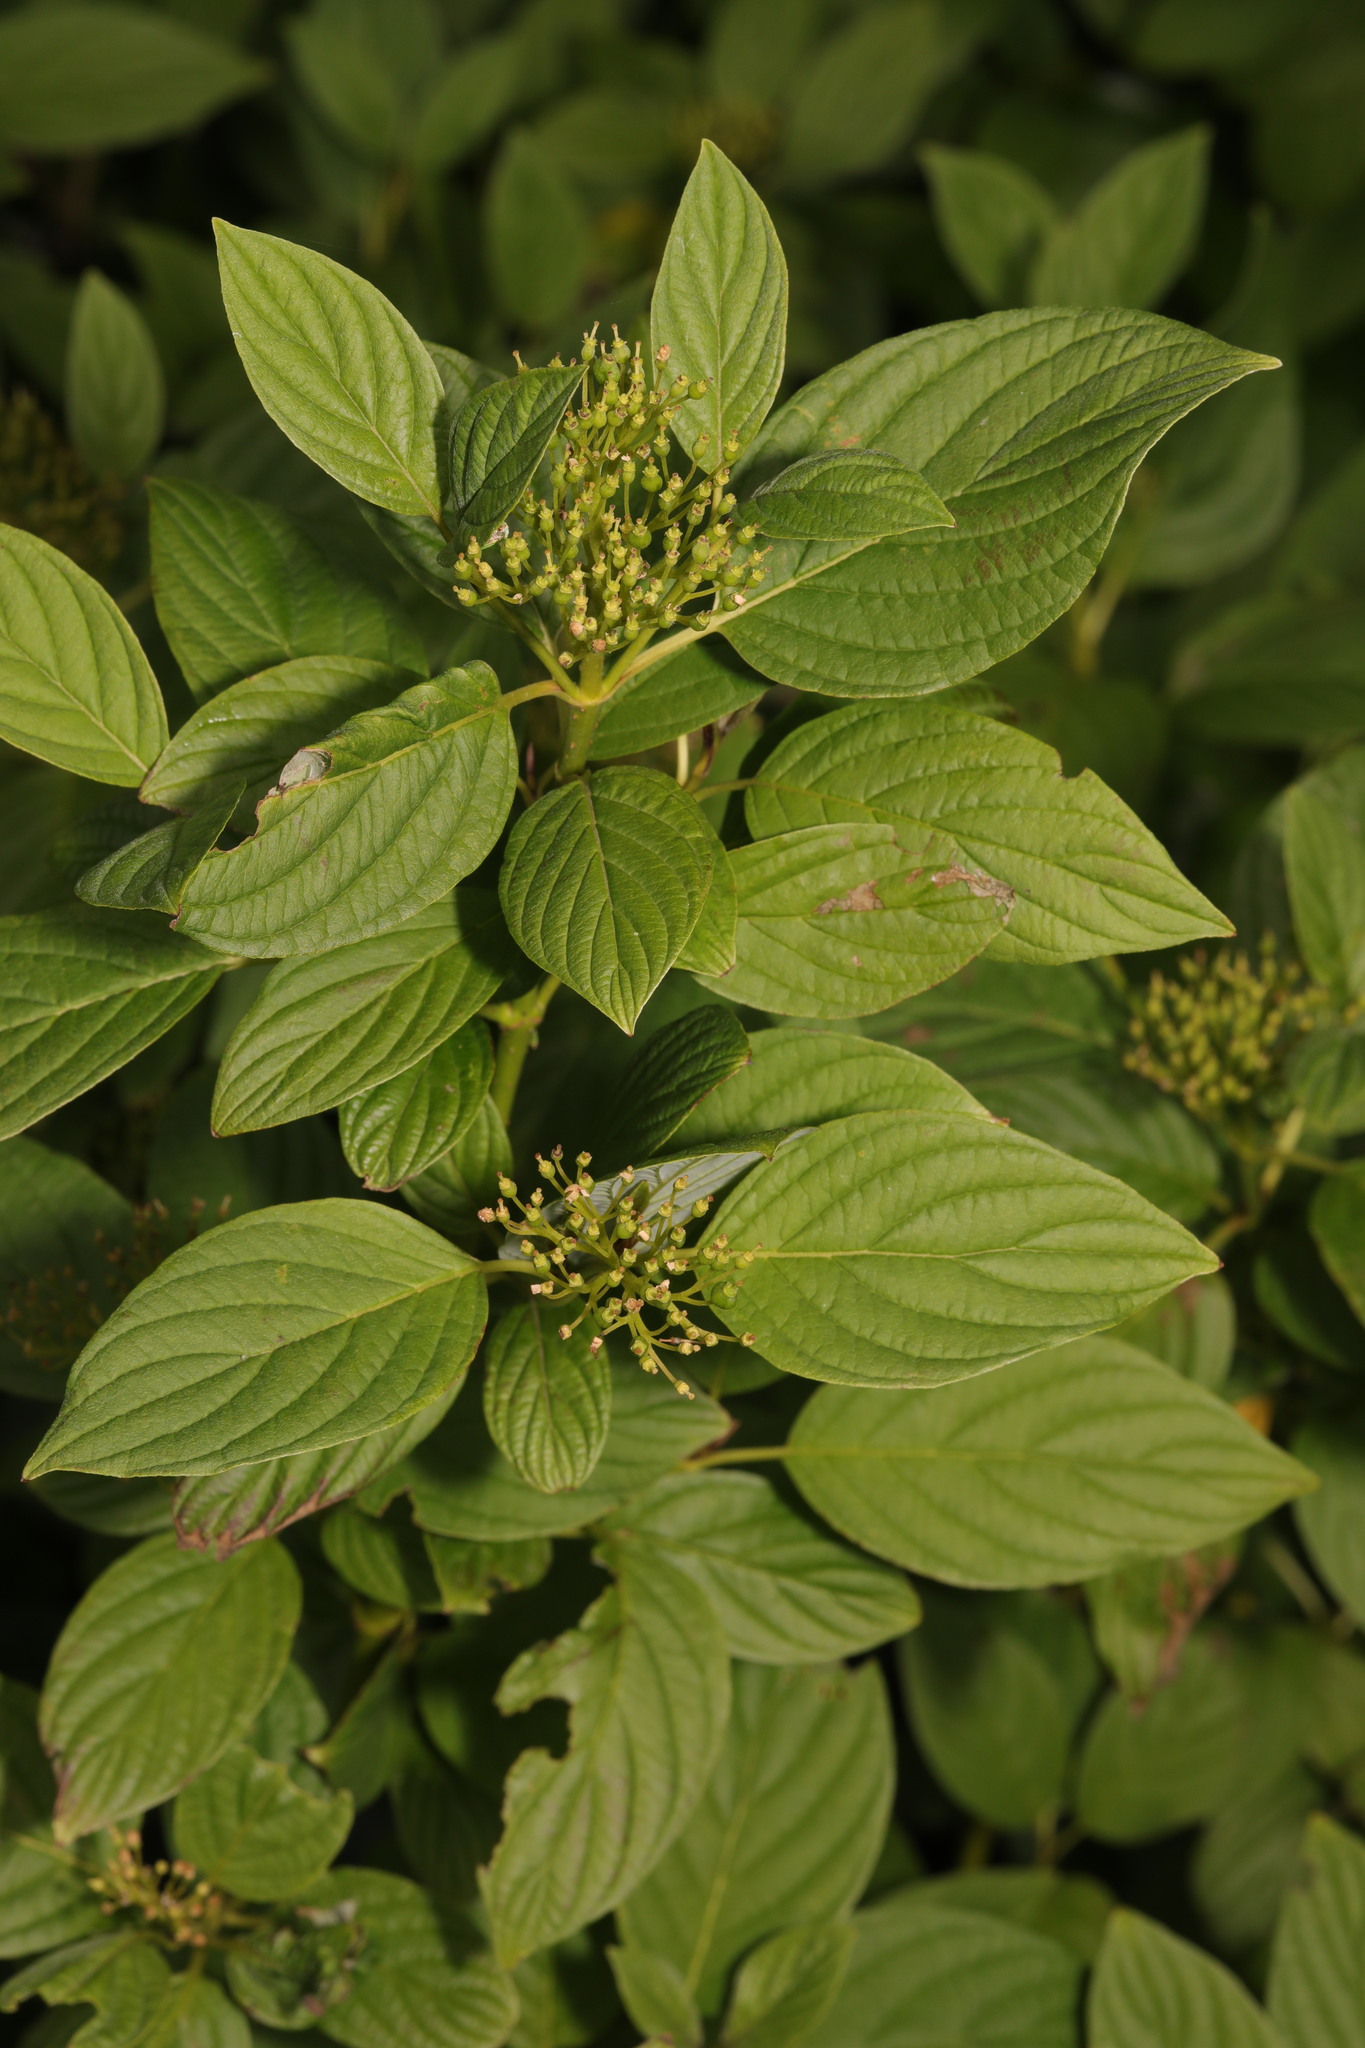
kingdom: Plantae
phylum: Tracheophyta
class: Magnoliopsida
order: Cornales
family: Cornaceae
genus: Cornus
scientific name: Cornus sericea
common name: Red-osier dogwood
